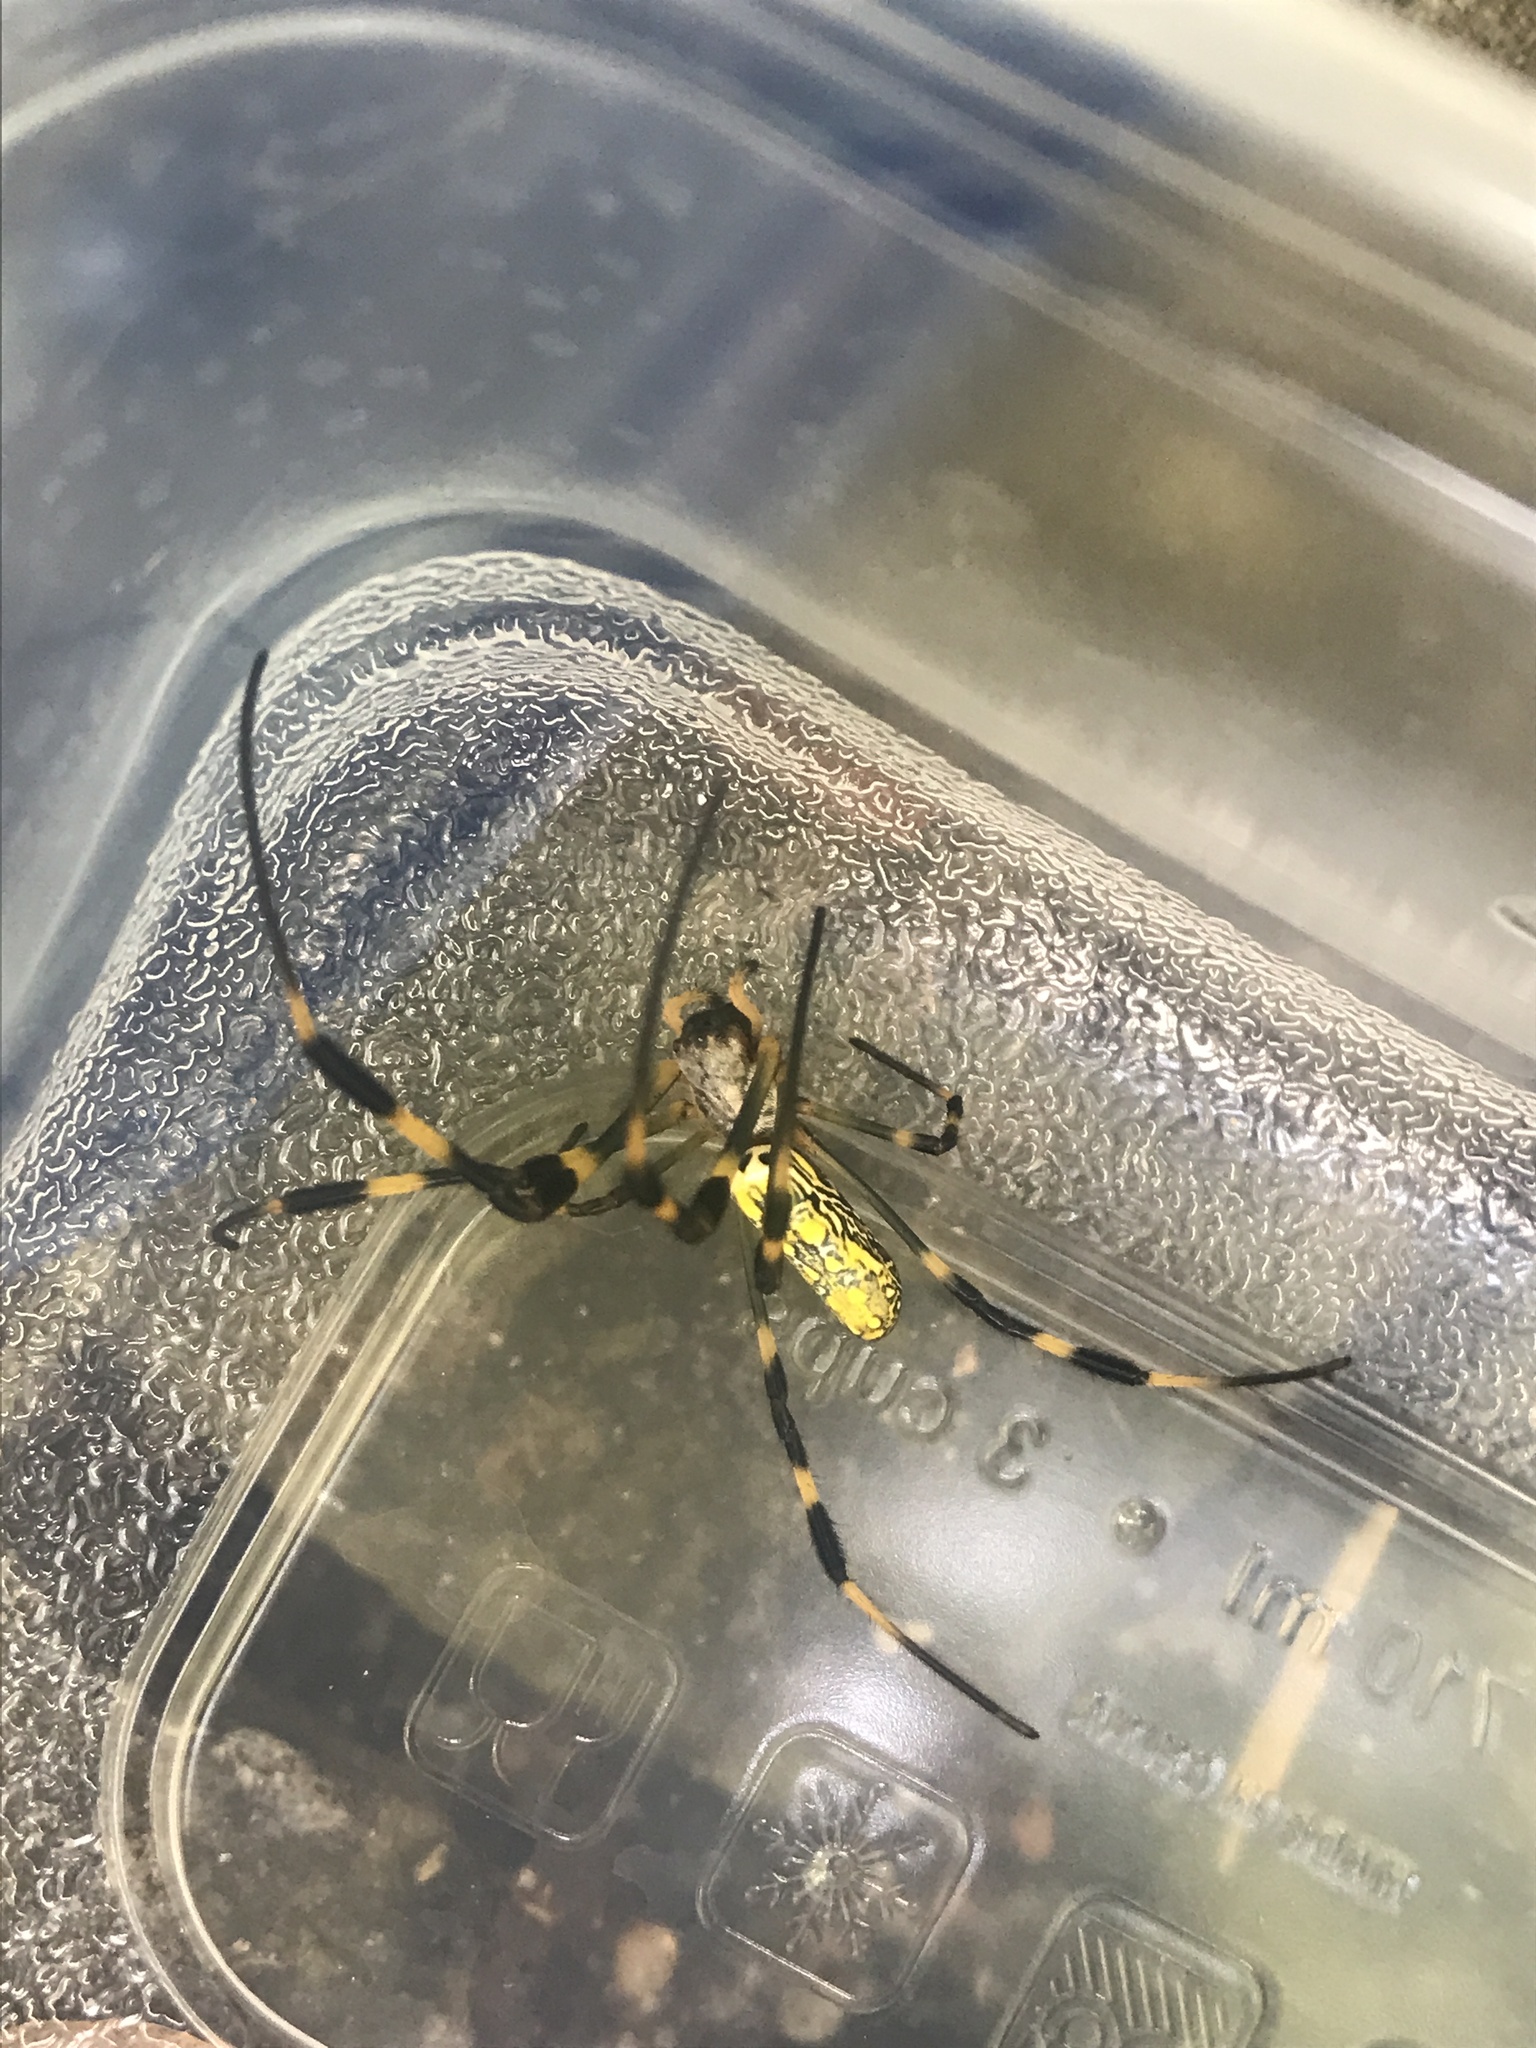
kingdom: Animalia
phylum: Arthropoda
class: Arachnida
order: Araneae
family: Araneidae
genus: Trichonephila
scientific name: Trichonephila clavata
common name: Jorō spider
